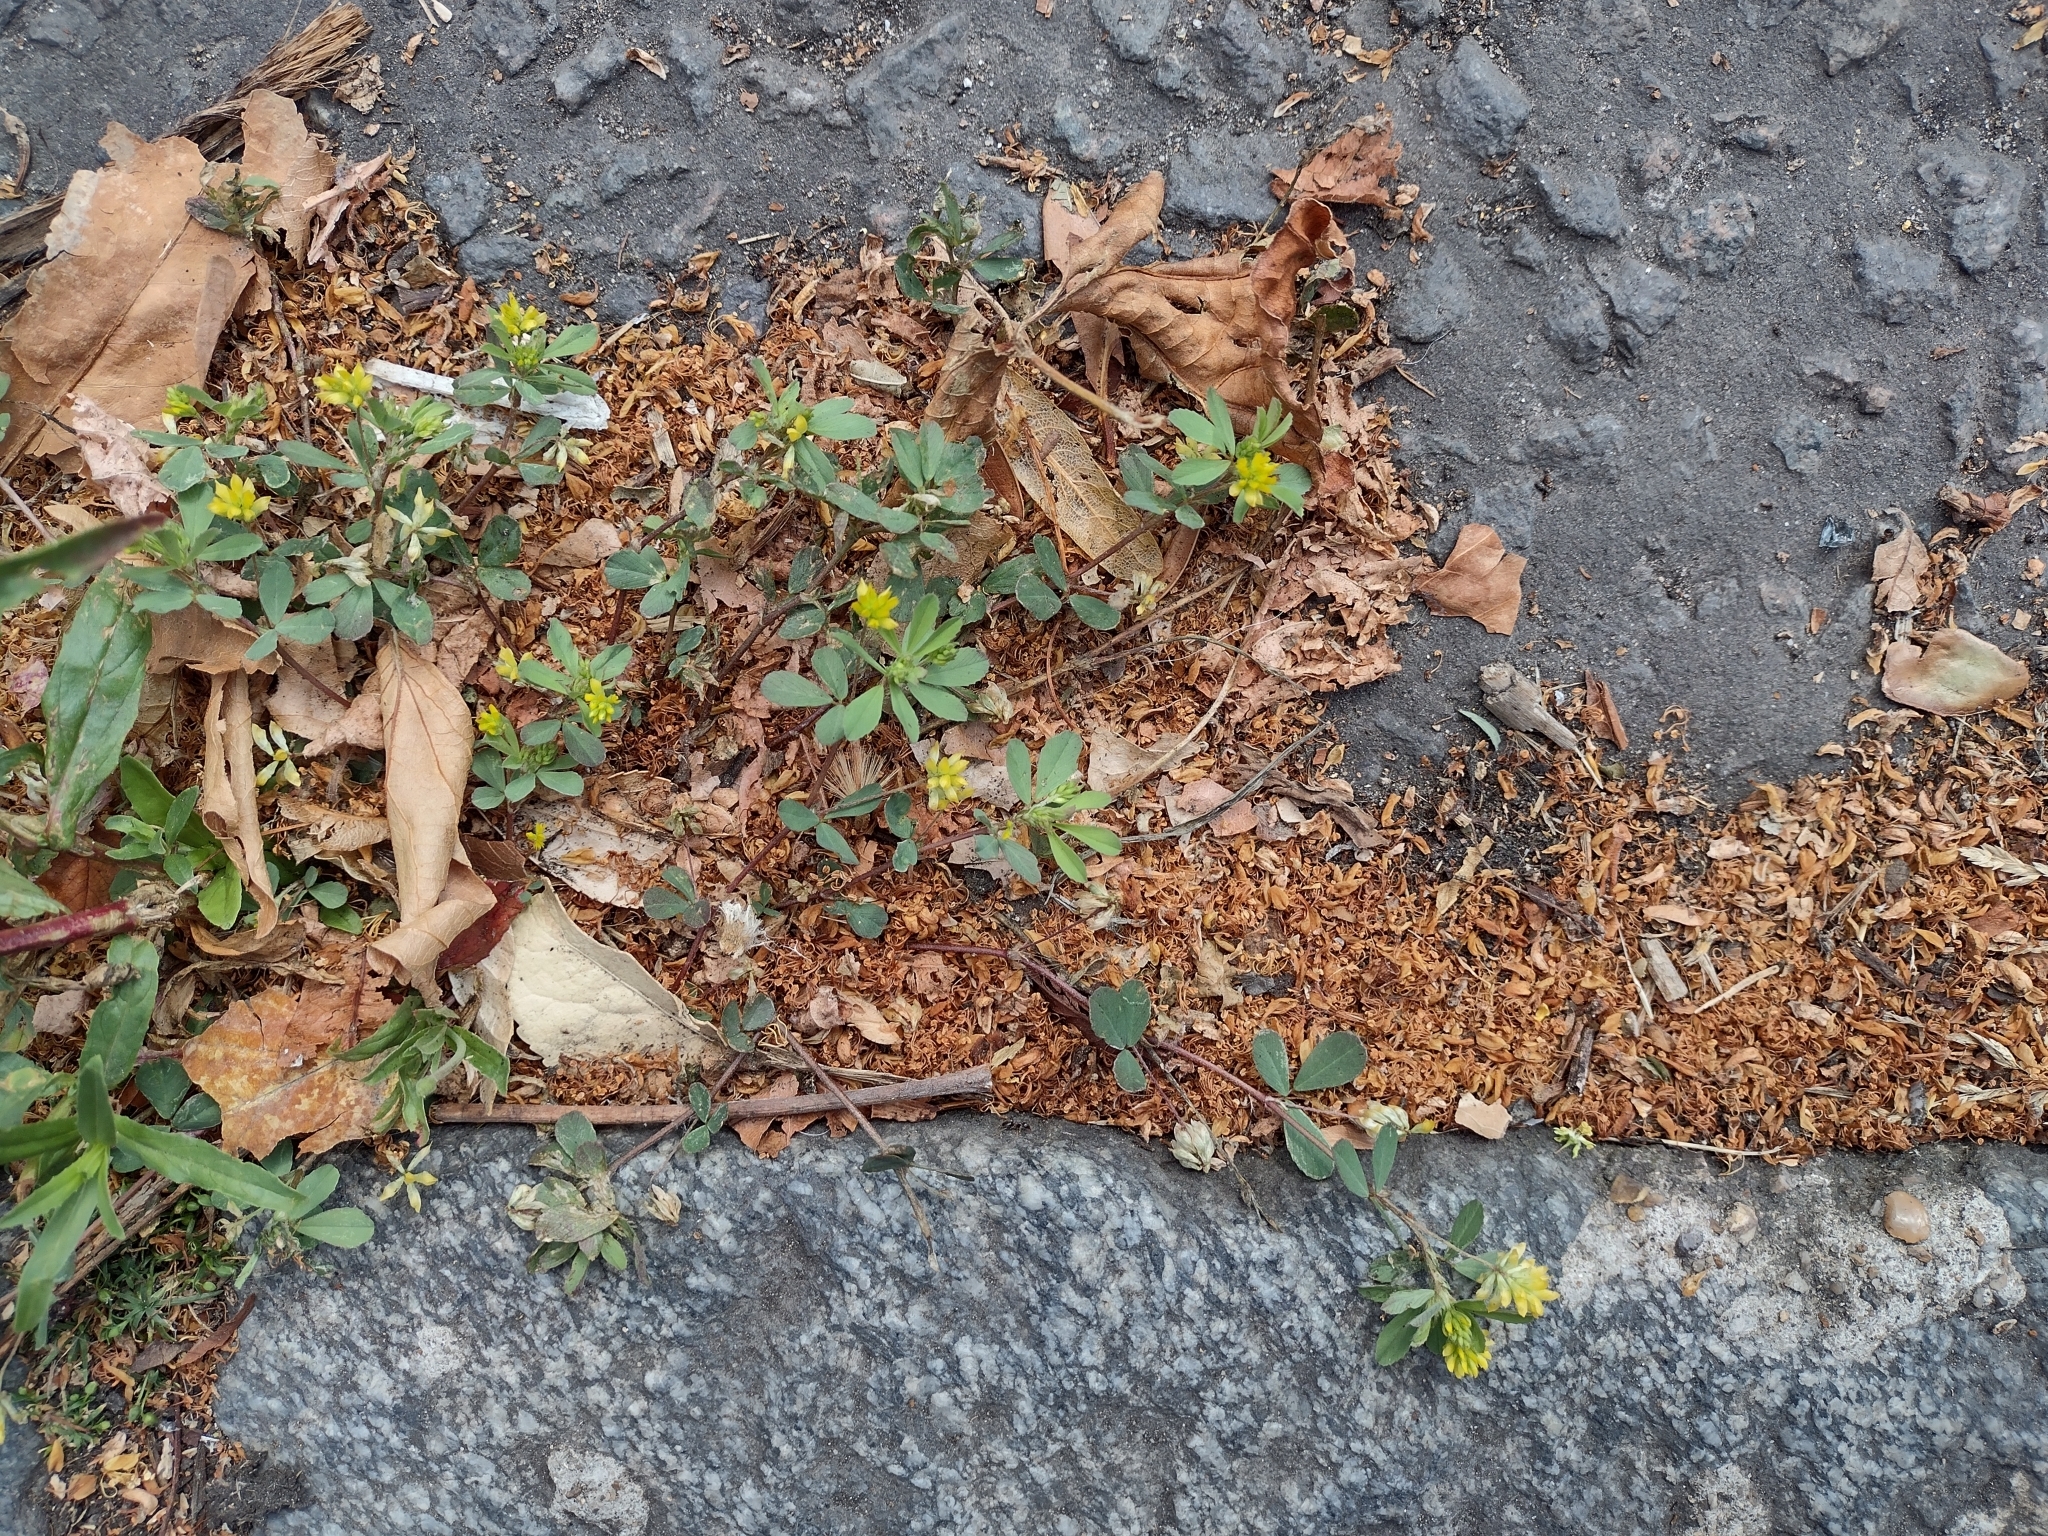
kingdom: Plantae
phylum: Tracheophyta
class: Magnoliopsida
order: Fabales
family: Fabaceae
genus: Trifolium
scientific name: Trifolium dubium
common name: Suckling clover
